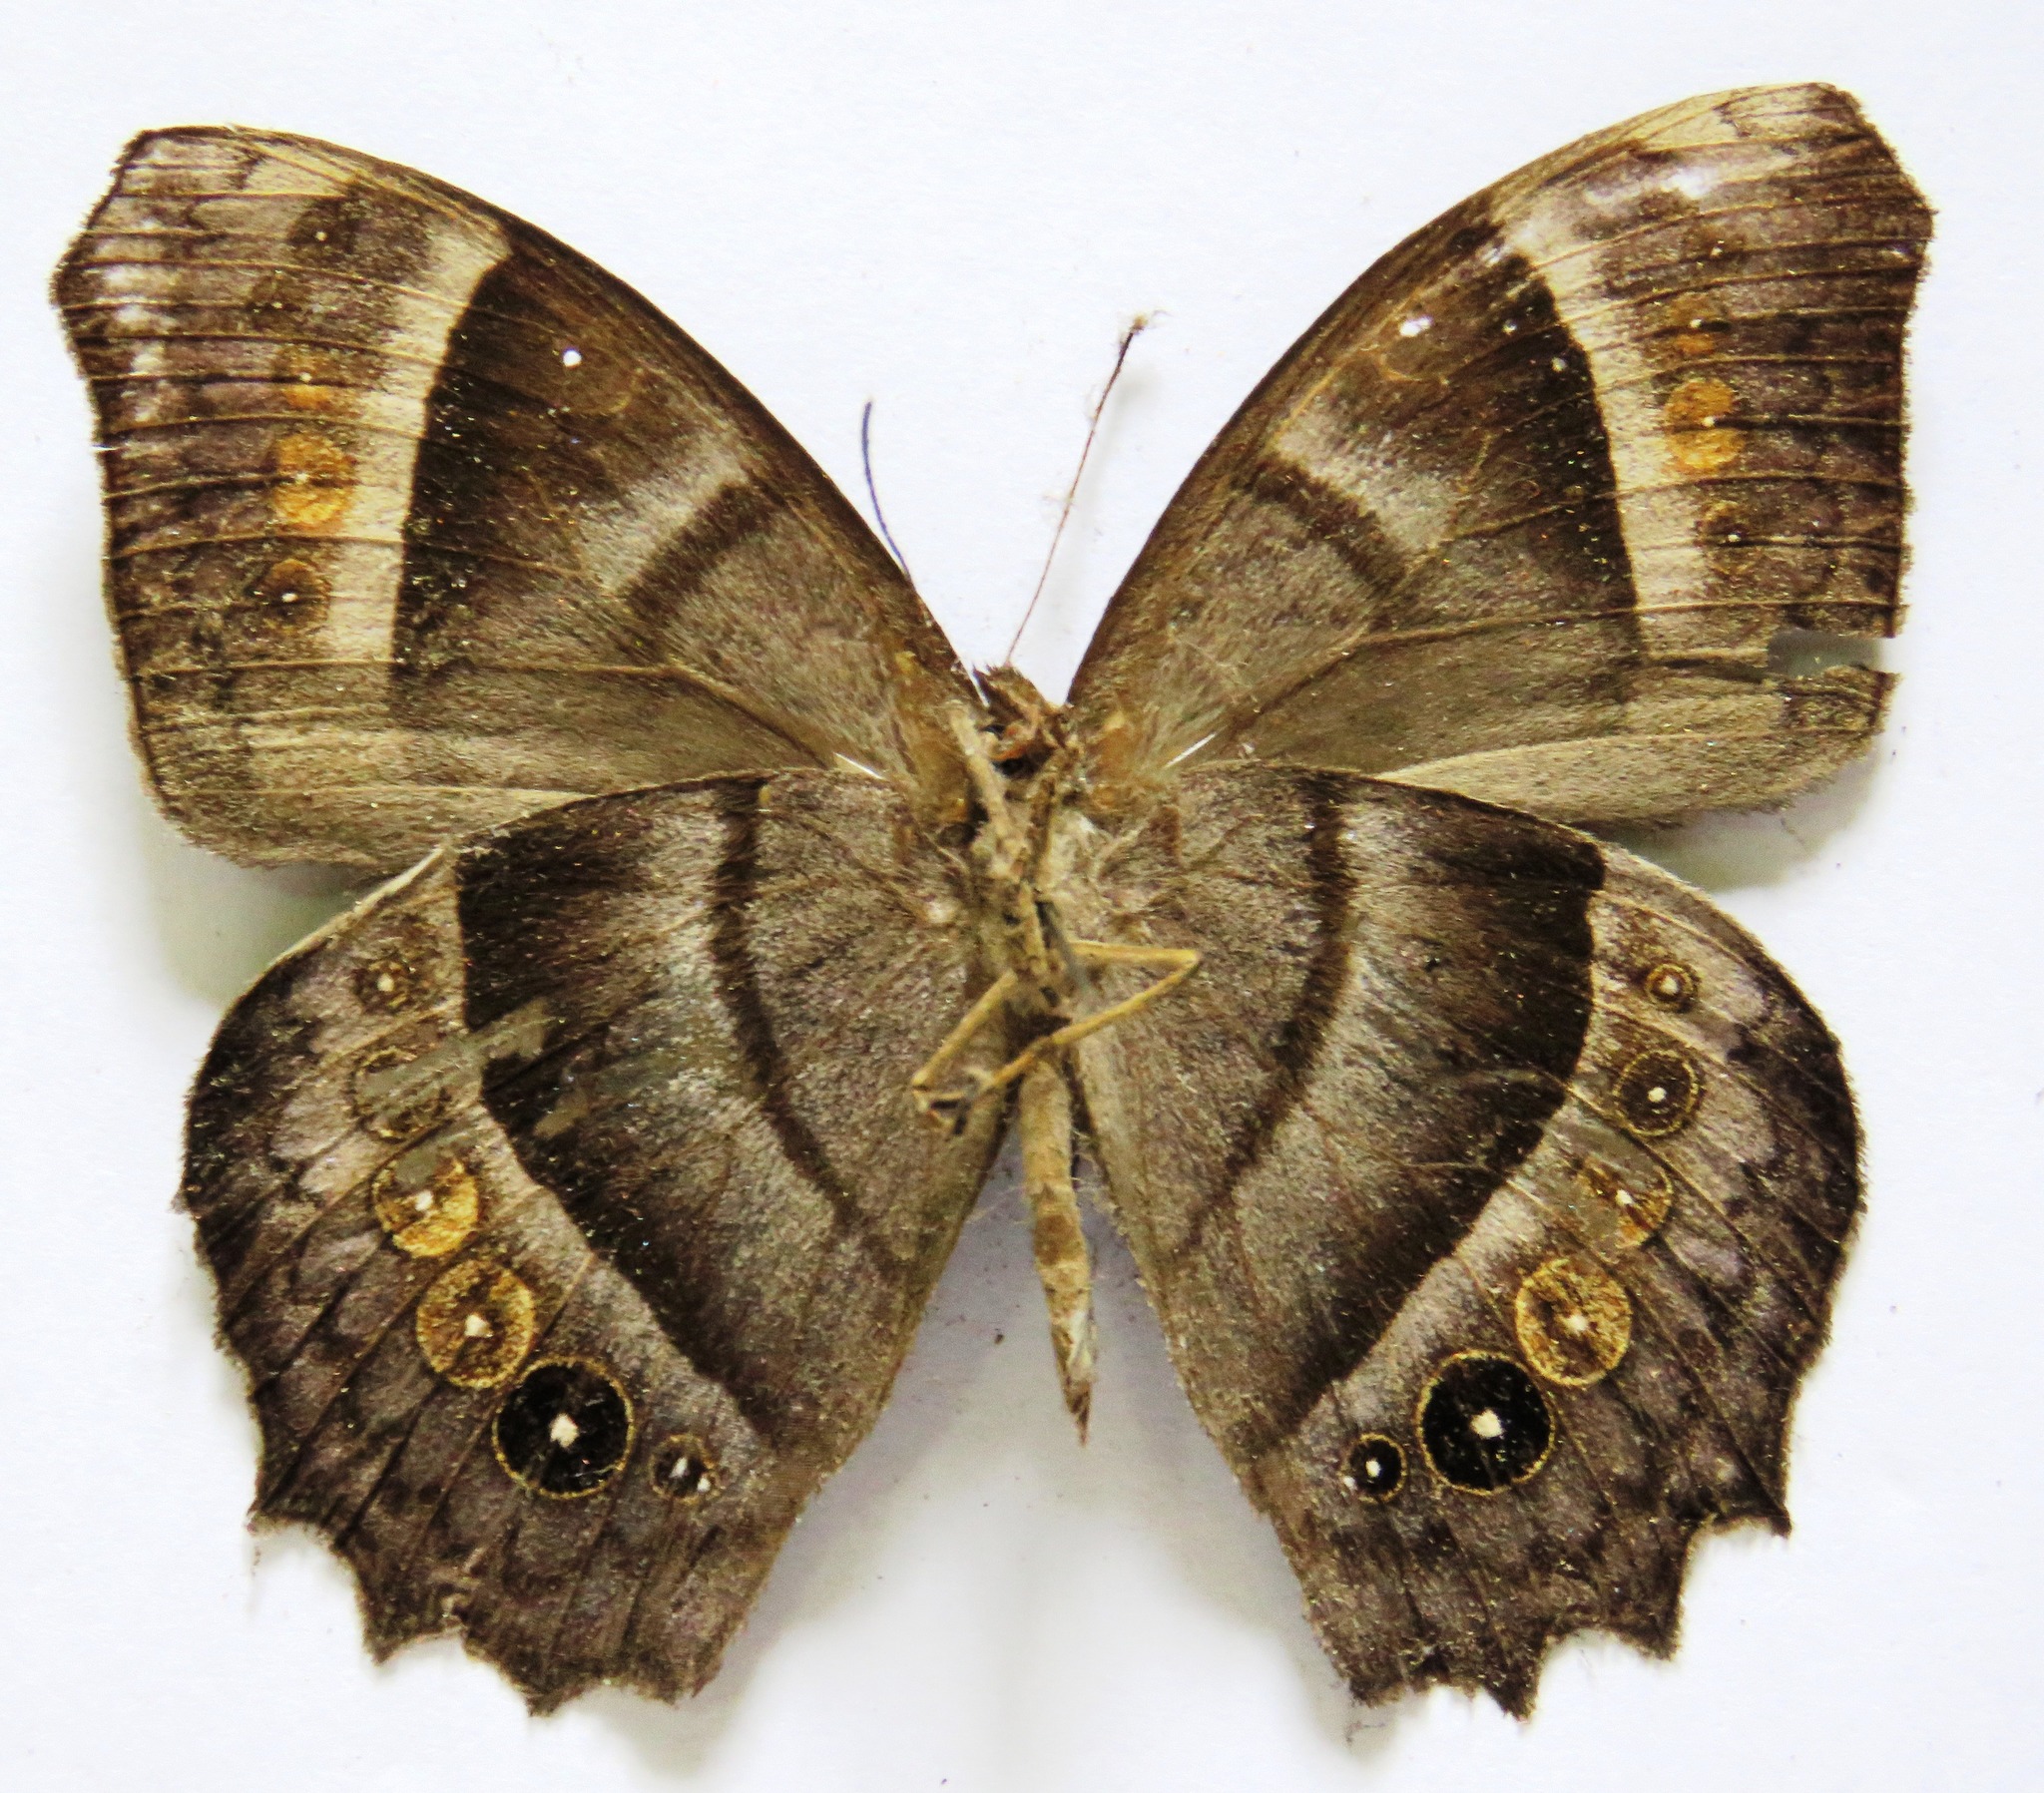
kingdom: Animalia
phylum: Arthropoda
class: Insecta
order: Lepidoptera
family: Nymphalidae
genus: Taygetis
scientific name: Taygetis inconspicua
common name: Inconspicuous satyr
